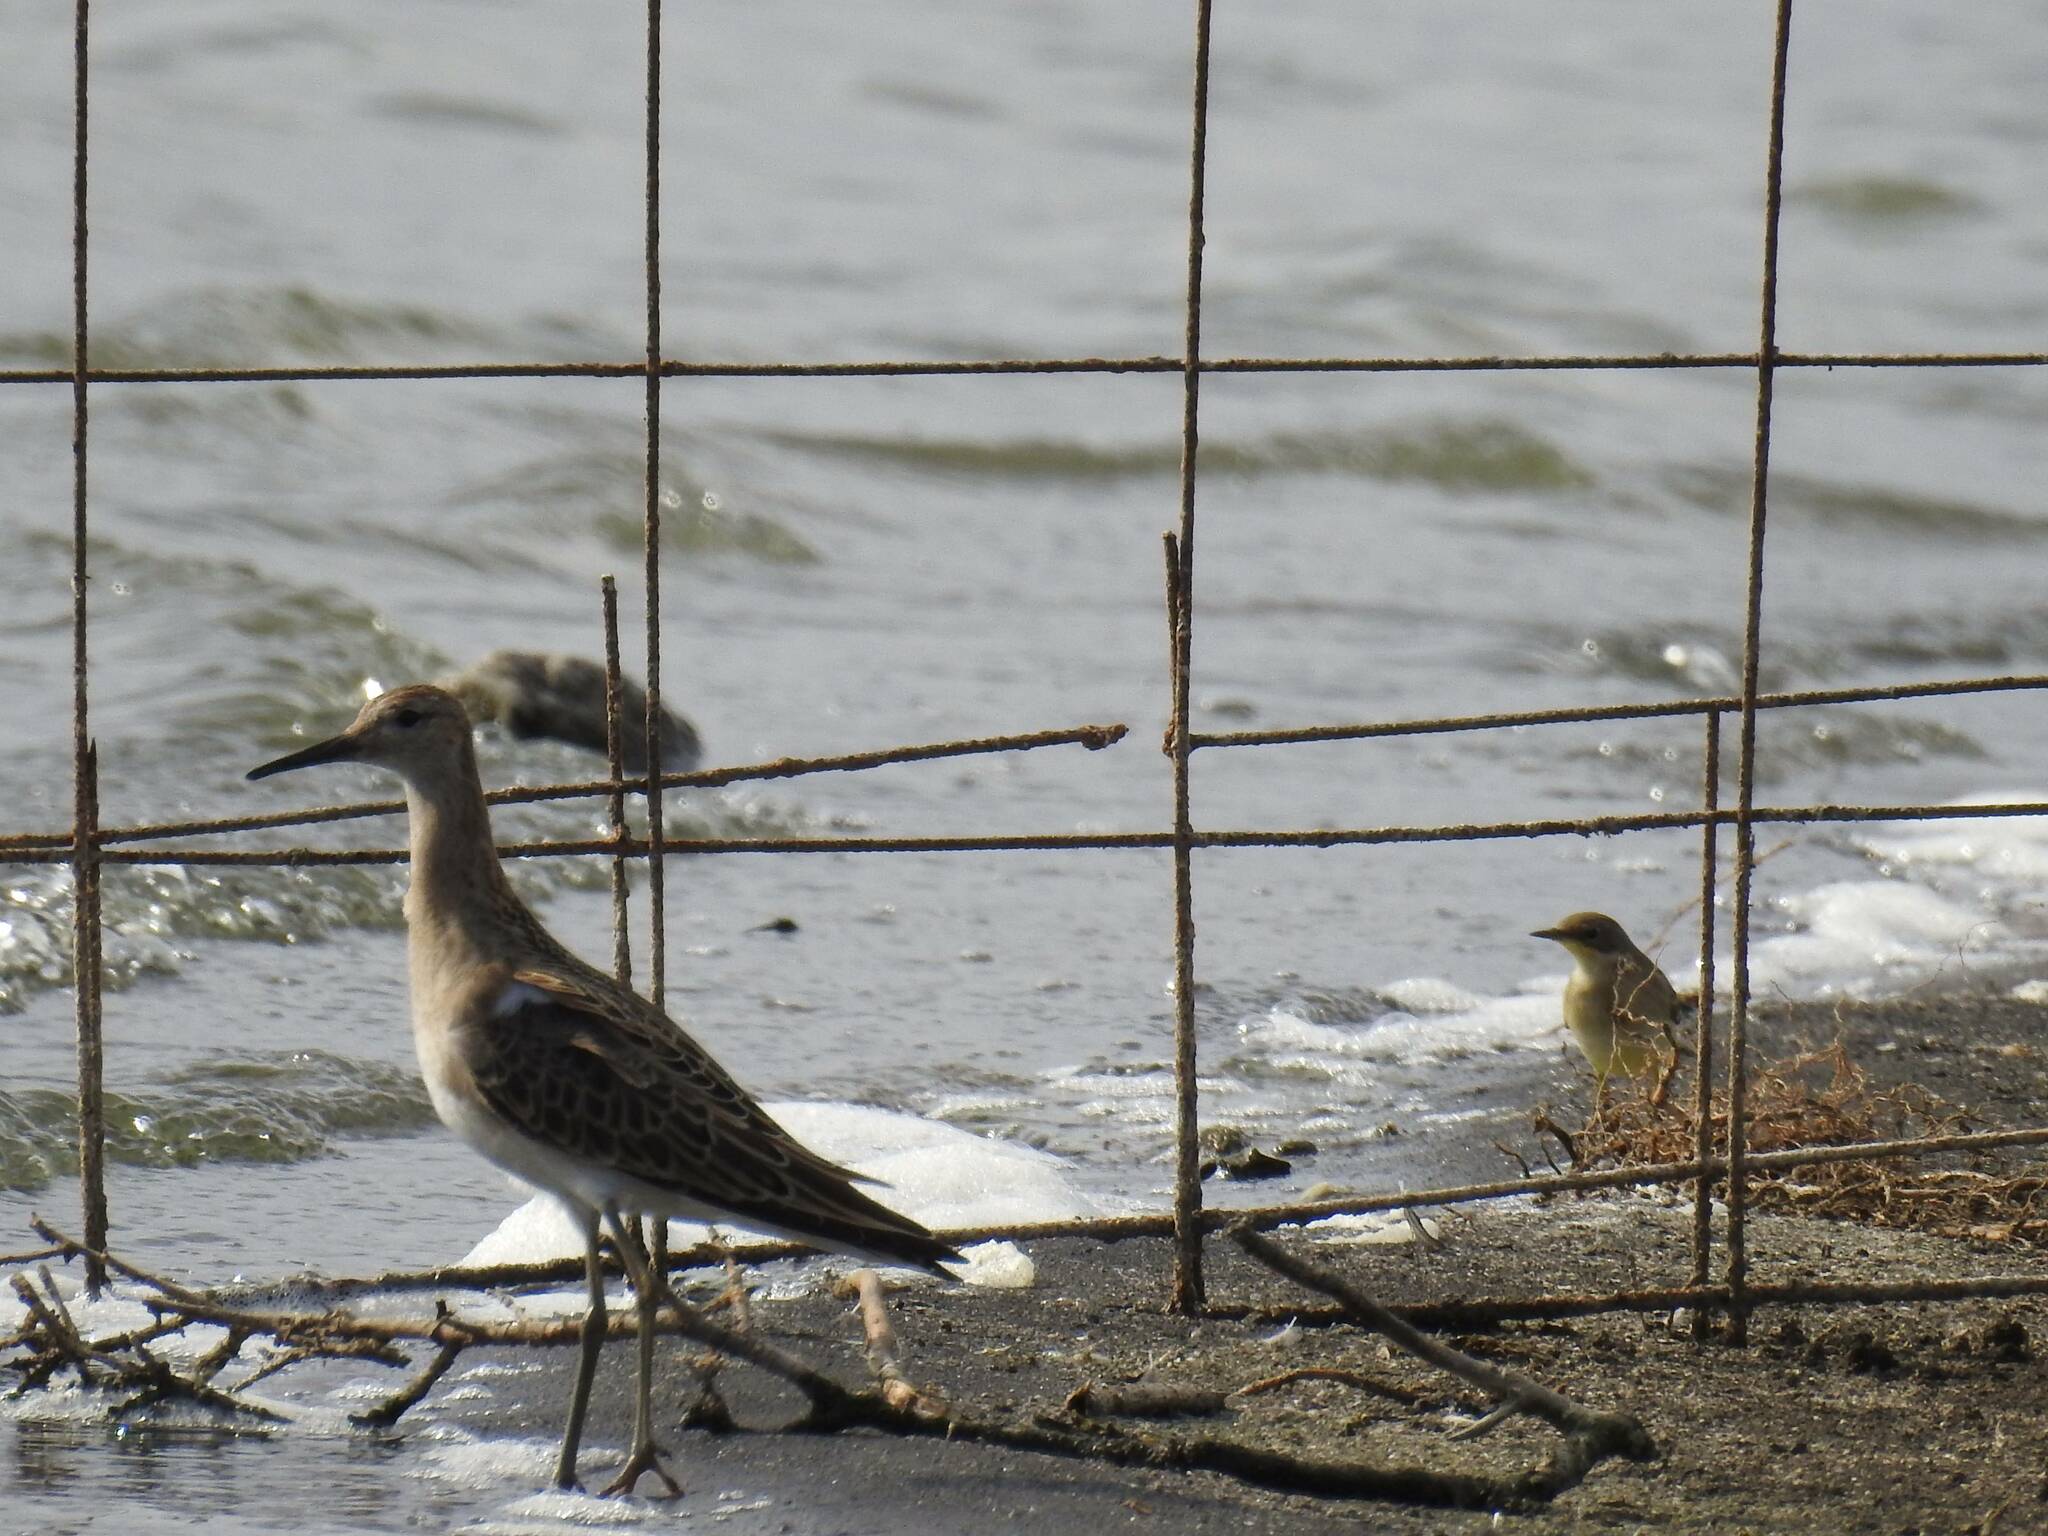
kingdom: Animalia
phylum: Chordata
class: Aves
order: Charadriiformes
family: Scolopacidae
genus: Calidris
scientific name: Calidris pugnax
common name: Ruff
